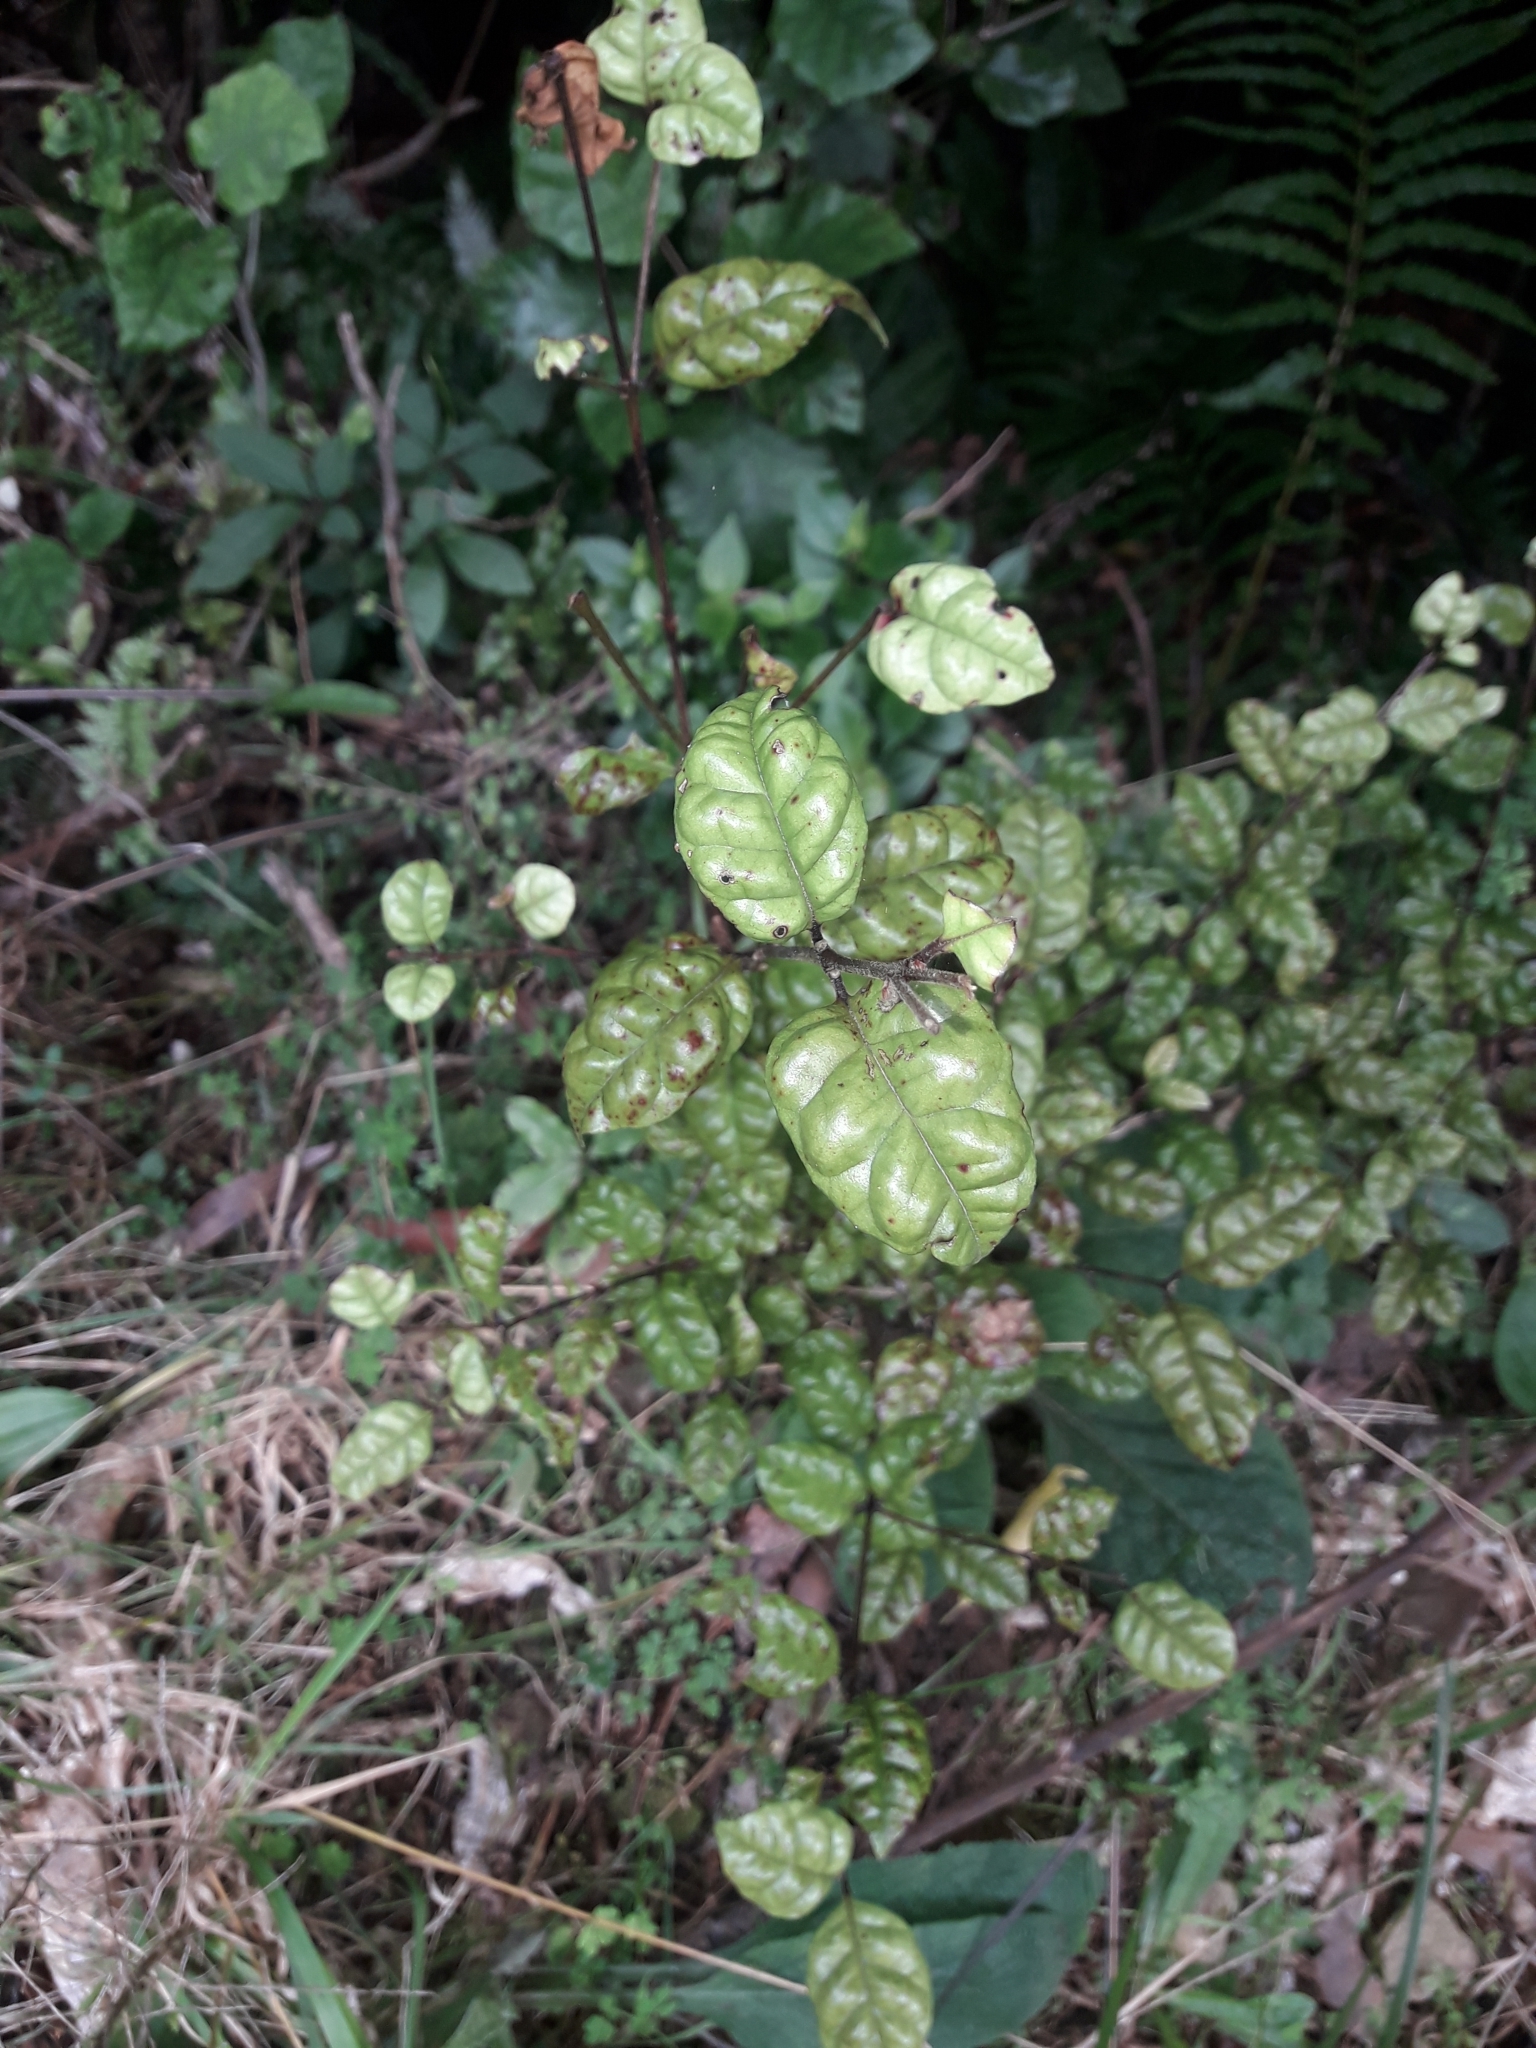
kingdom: Plantae
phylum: Tracheophyta
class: Magnoliopsida
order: Myrtales
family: Myrtaceae
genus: Lophomyrtus
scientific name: Lophomyrtus bullata
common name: Rama rama
